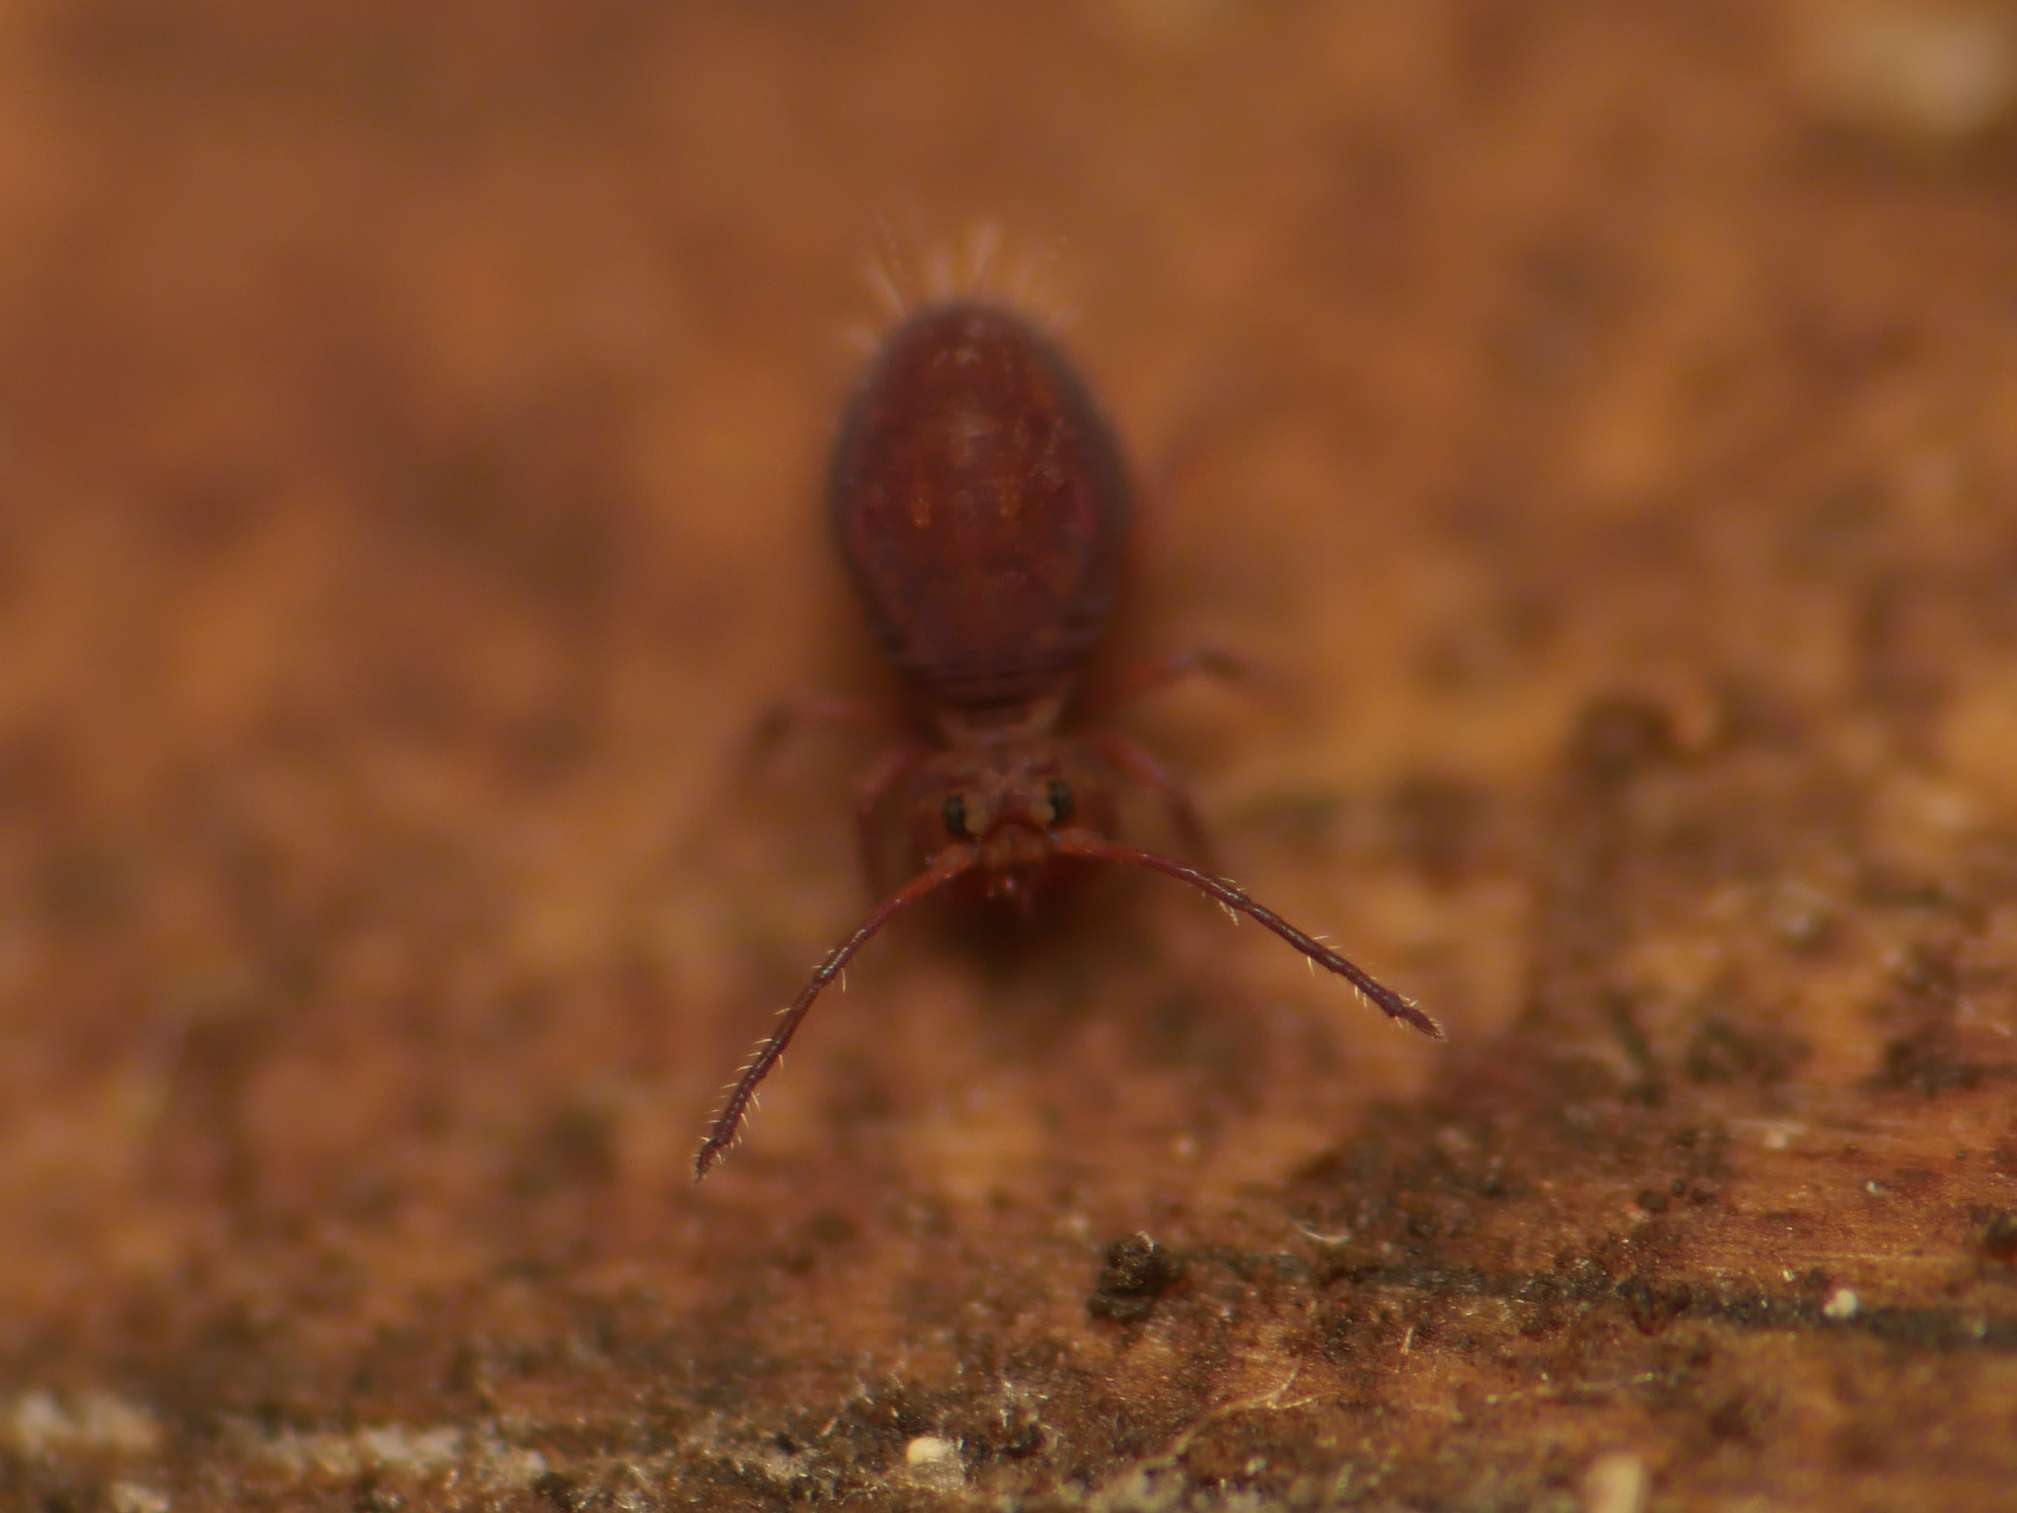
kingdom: Animalia
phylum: Arthropoda
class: Collembola
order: Symphypleona
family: Dicyrtomidae
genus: Dicyrtoma
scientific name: Dicyrtoma fusca
